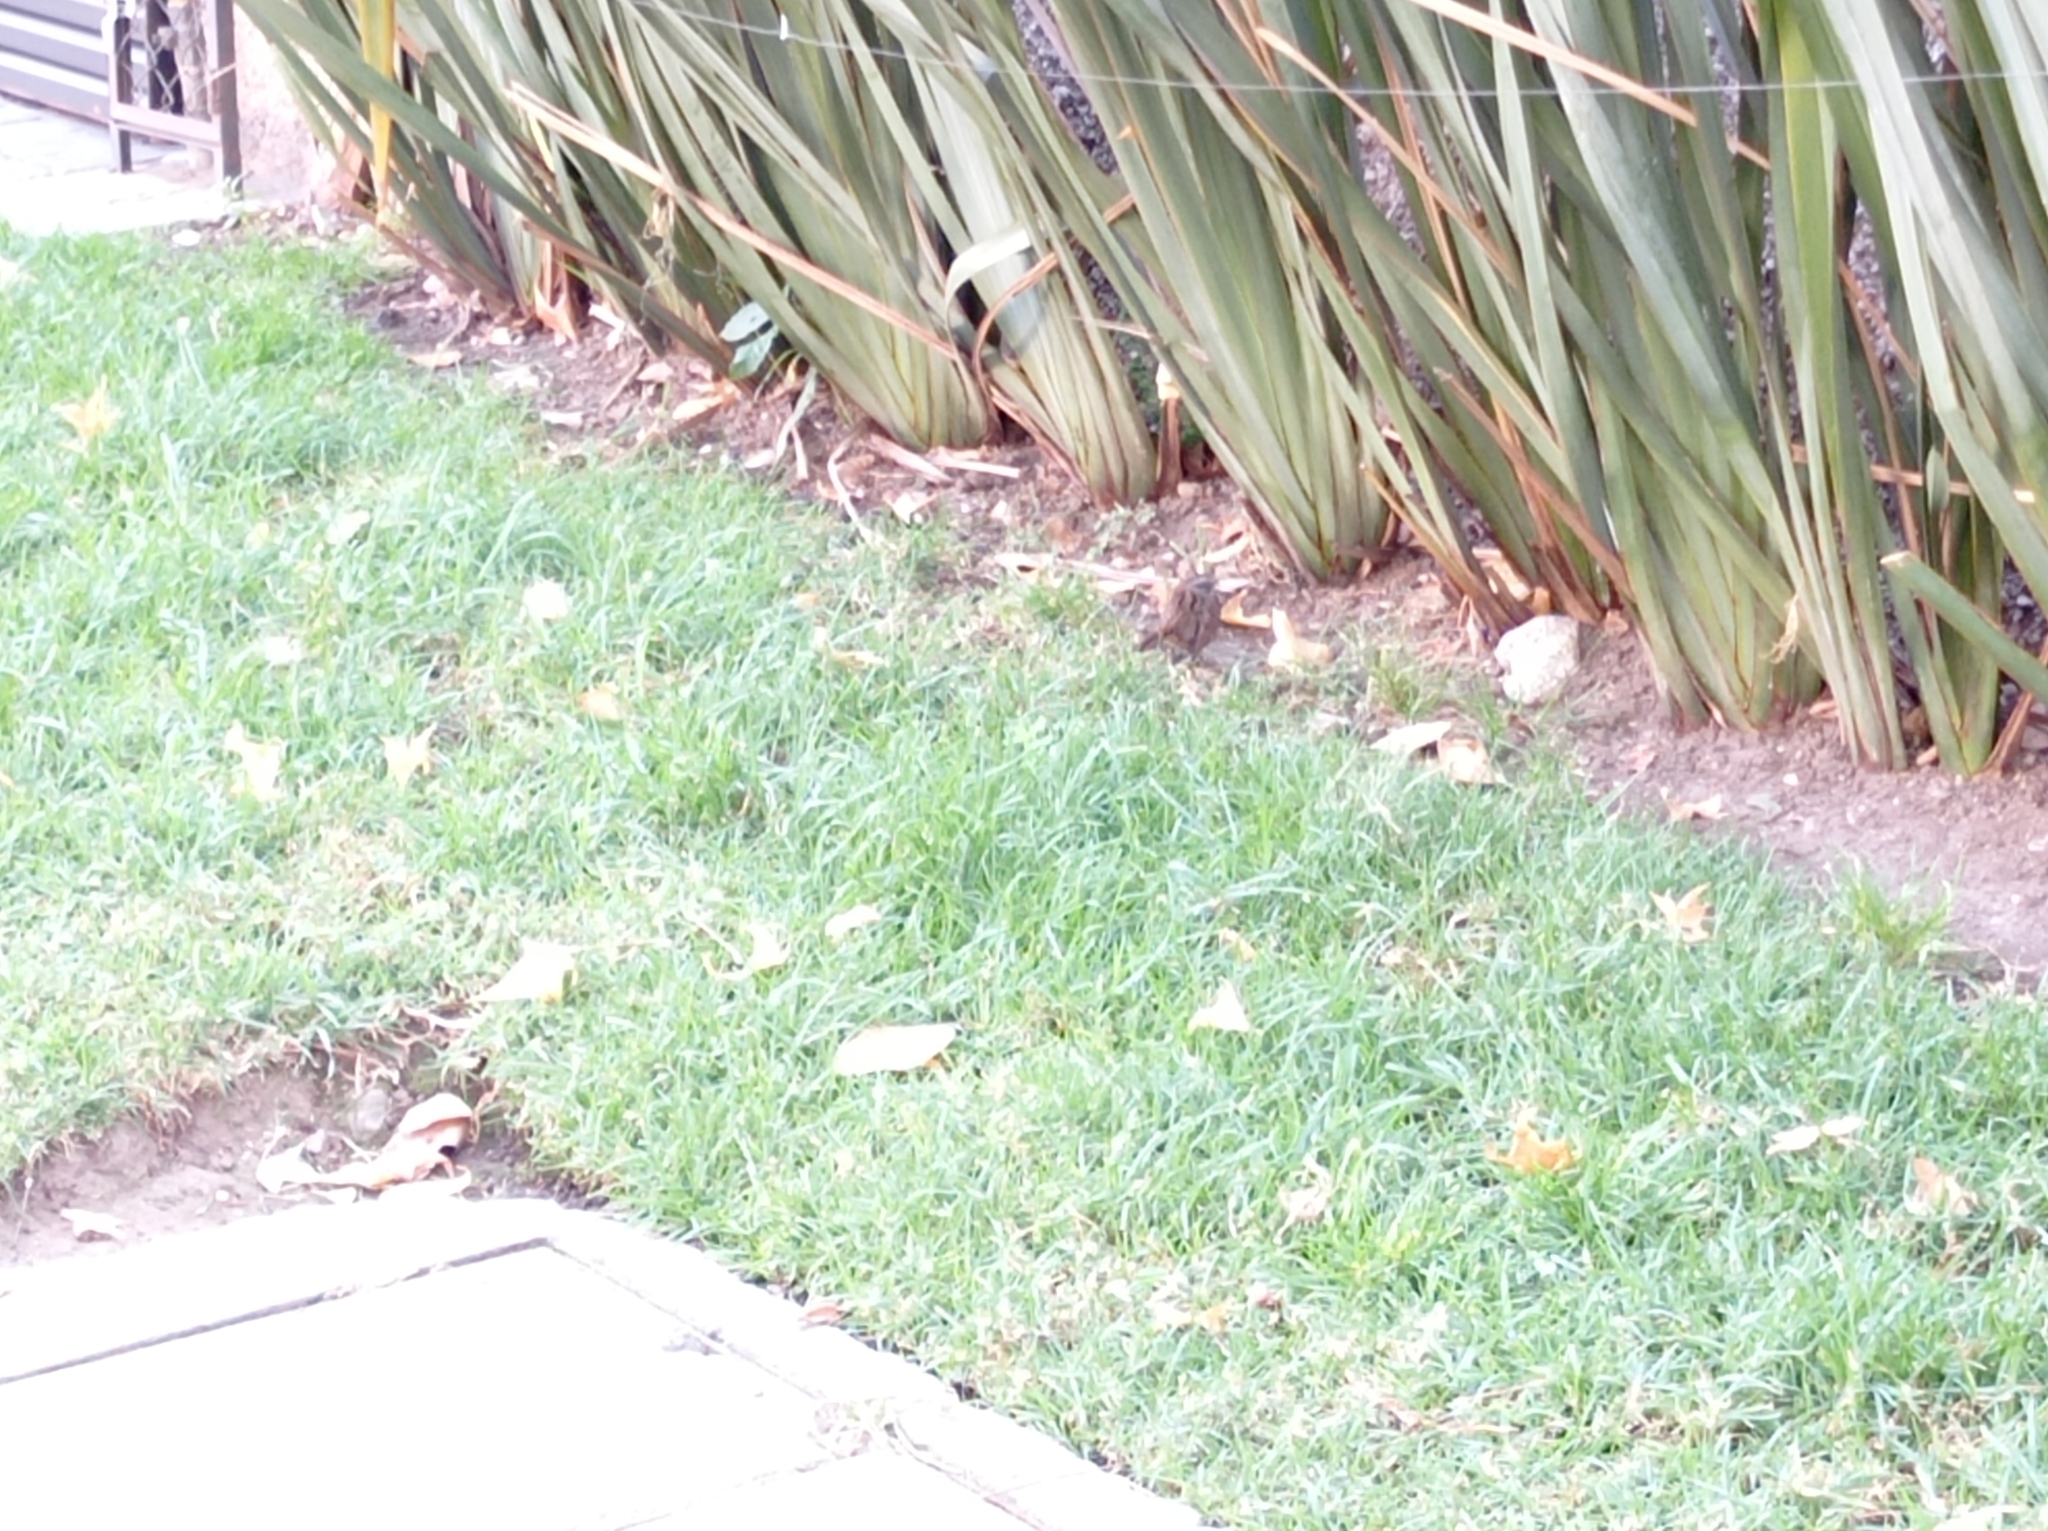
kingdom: Animalia
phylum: Chordata
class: Aves
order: Passeriformes
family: Passerellidae
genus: Melospiza
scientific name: Melospiza melodia
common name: Song sparrow
